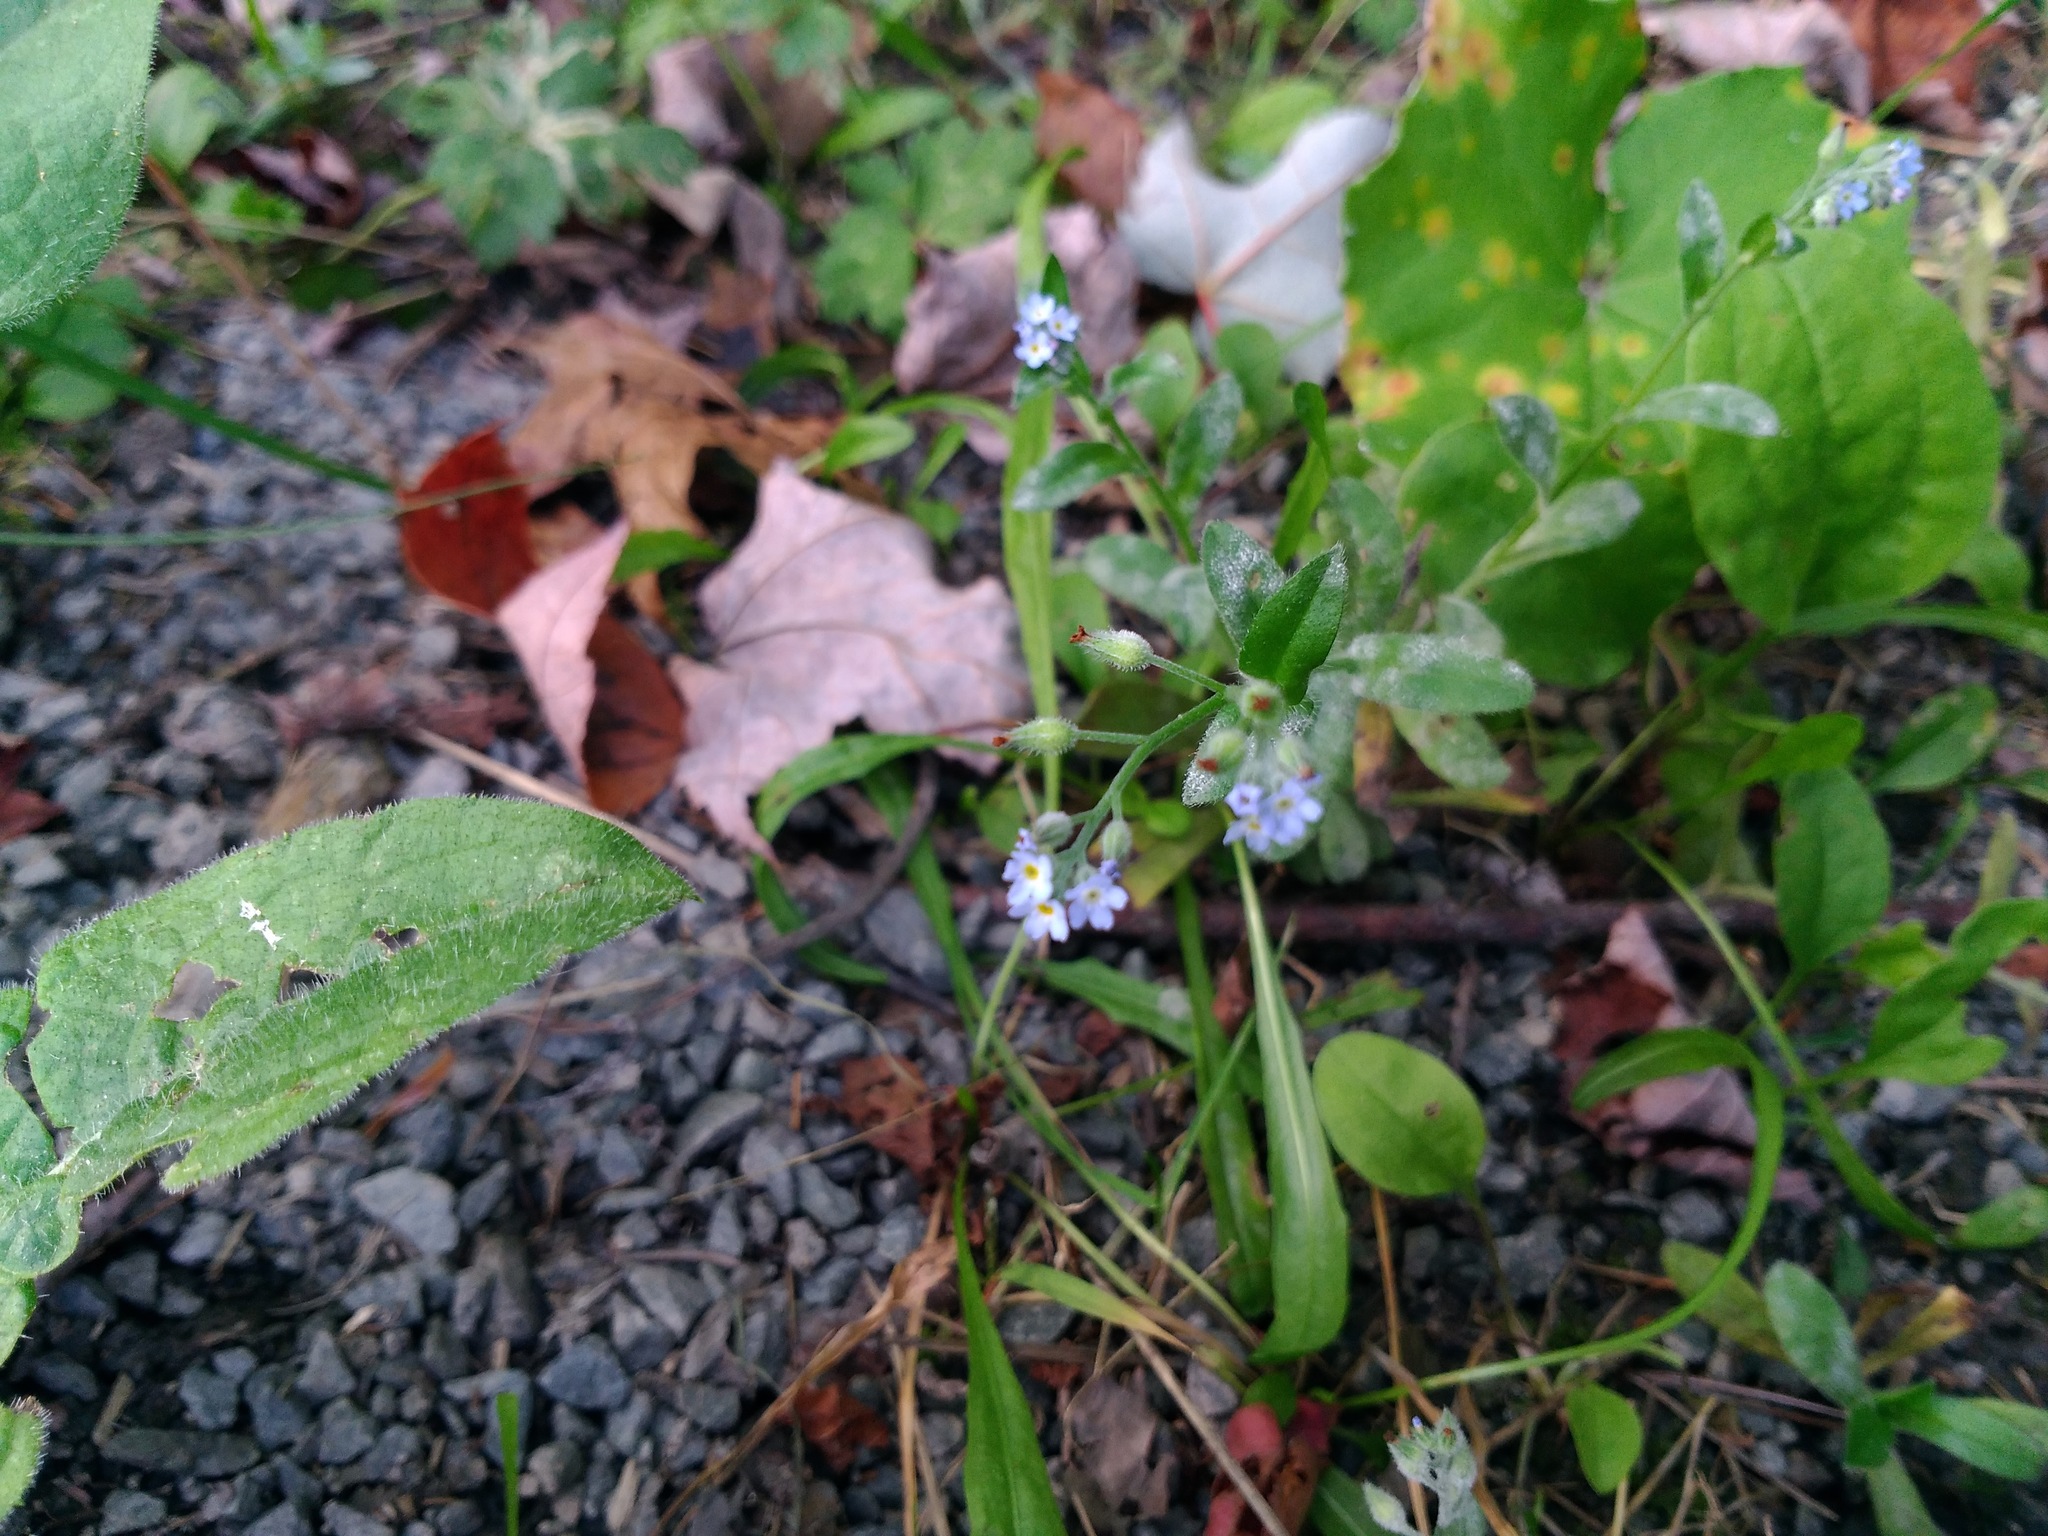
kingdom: Plantae
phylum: Tracheophyta
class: Magnoliopsida
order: Boraginales
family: Boraginaceae
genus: Myosotis
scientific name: Myosotis arvensis
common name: Field forget-me-not
